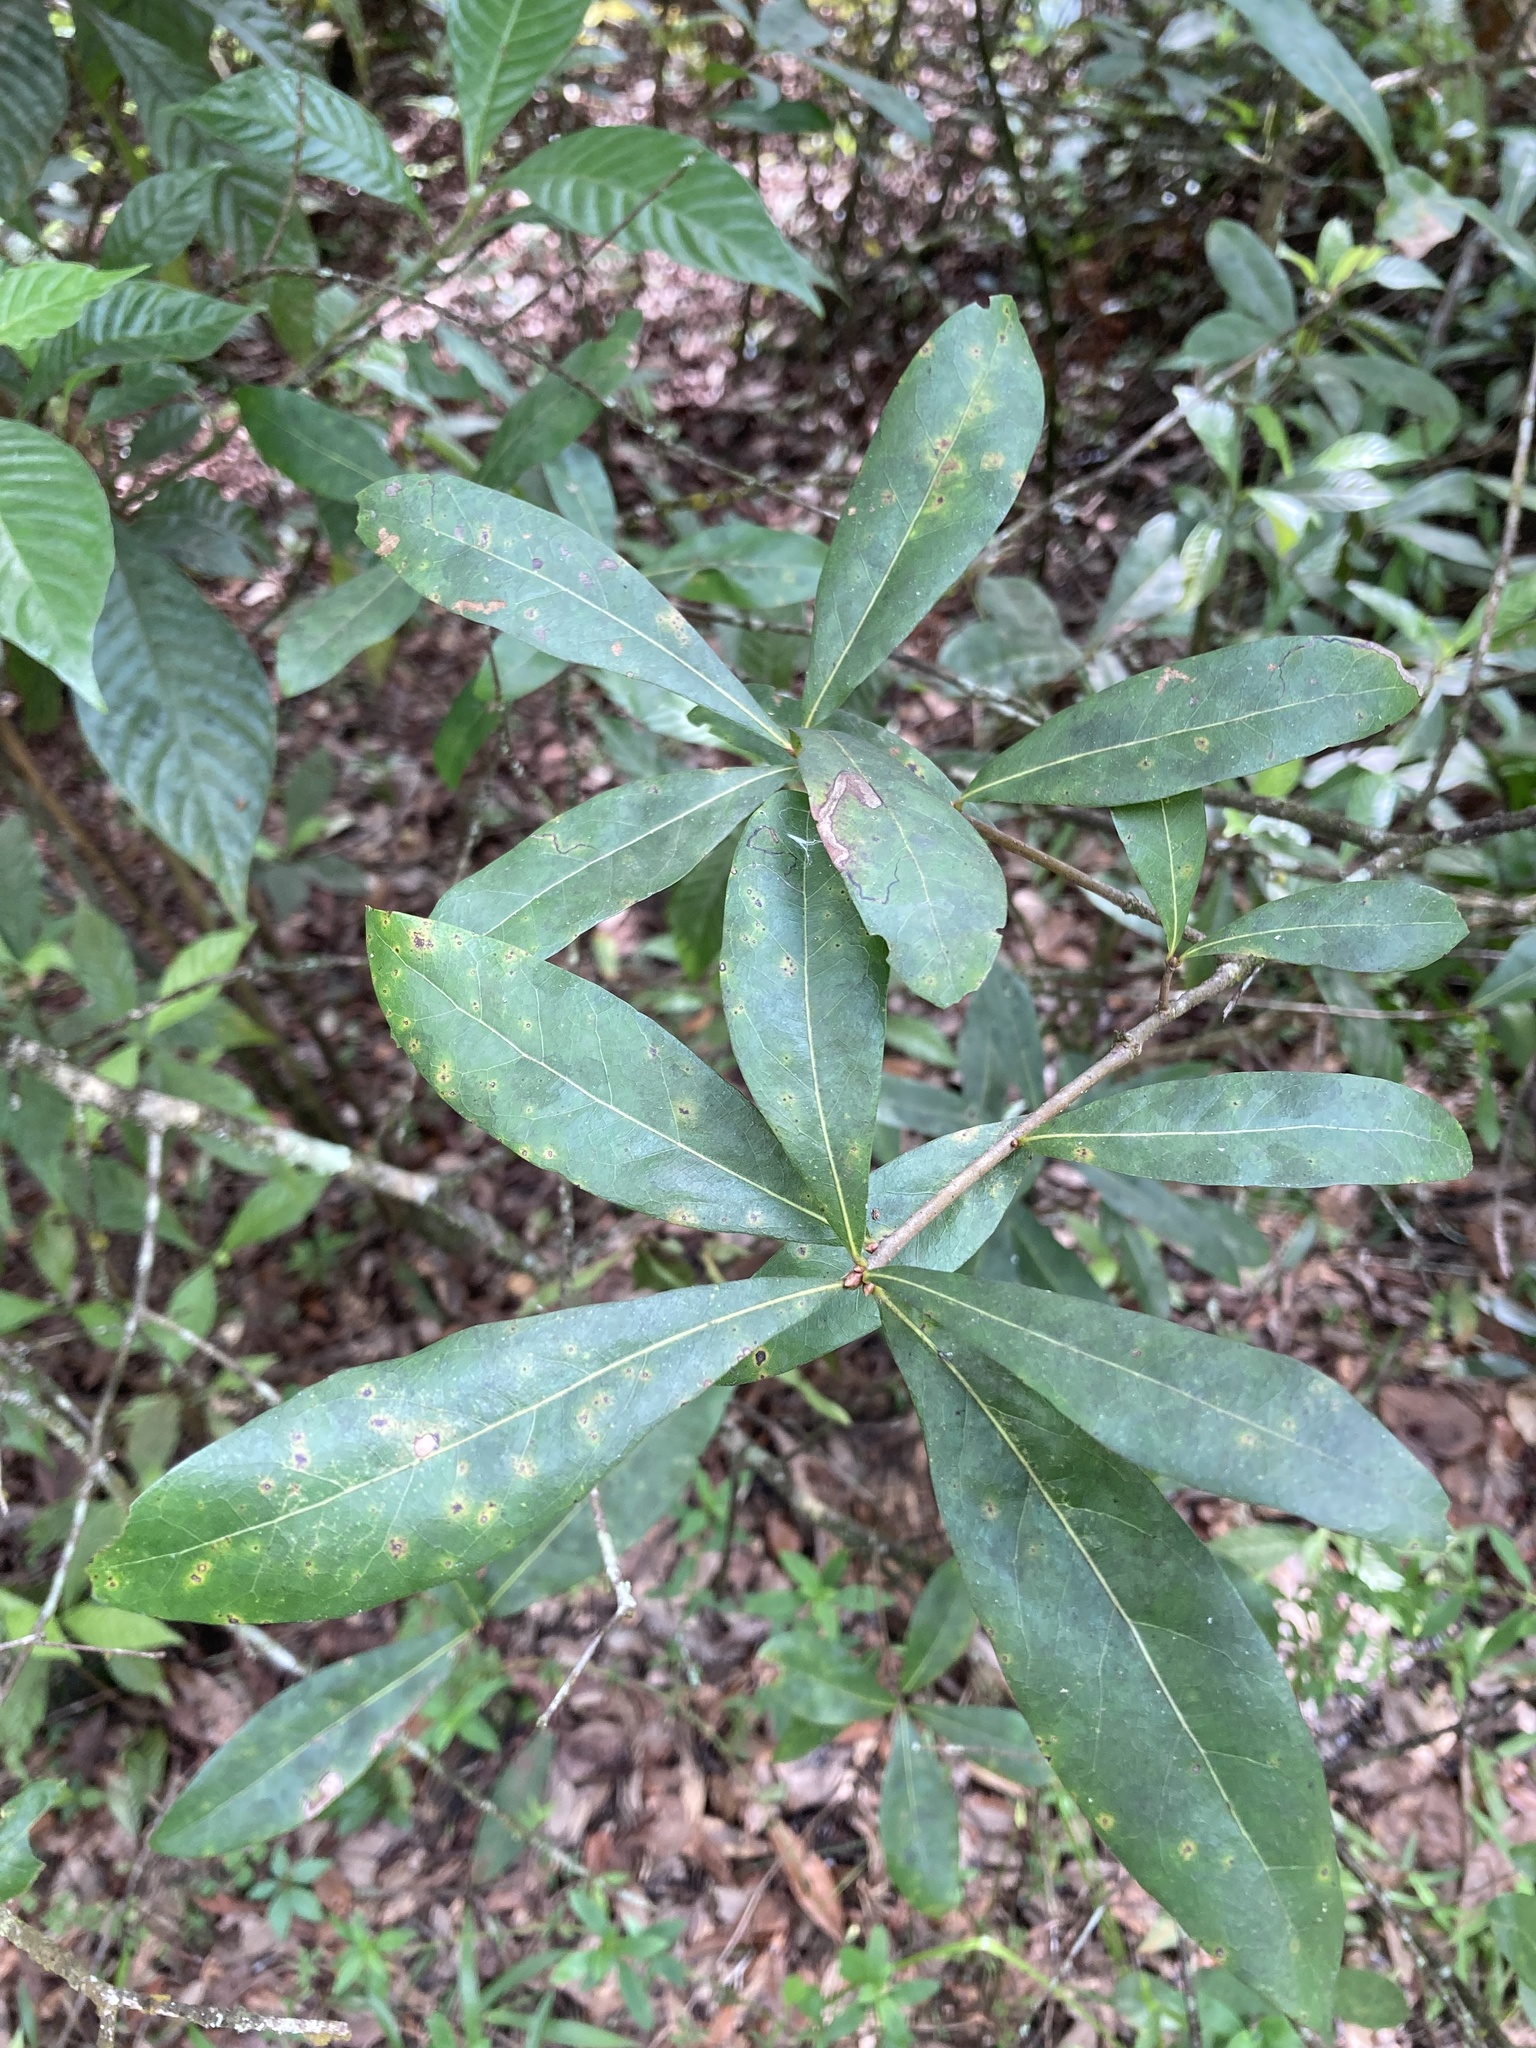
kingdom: Plantae
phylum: Tracheophyta
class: Magnoliopsida
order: Fagales
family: Fagaceae
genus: Quercus
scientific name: Quercus laurifolia
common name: Swamp laurel oak
